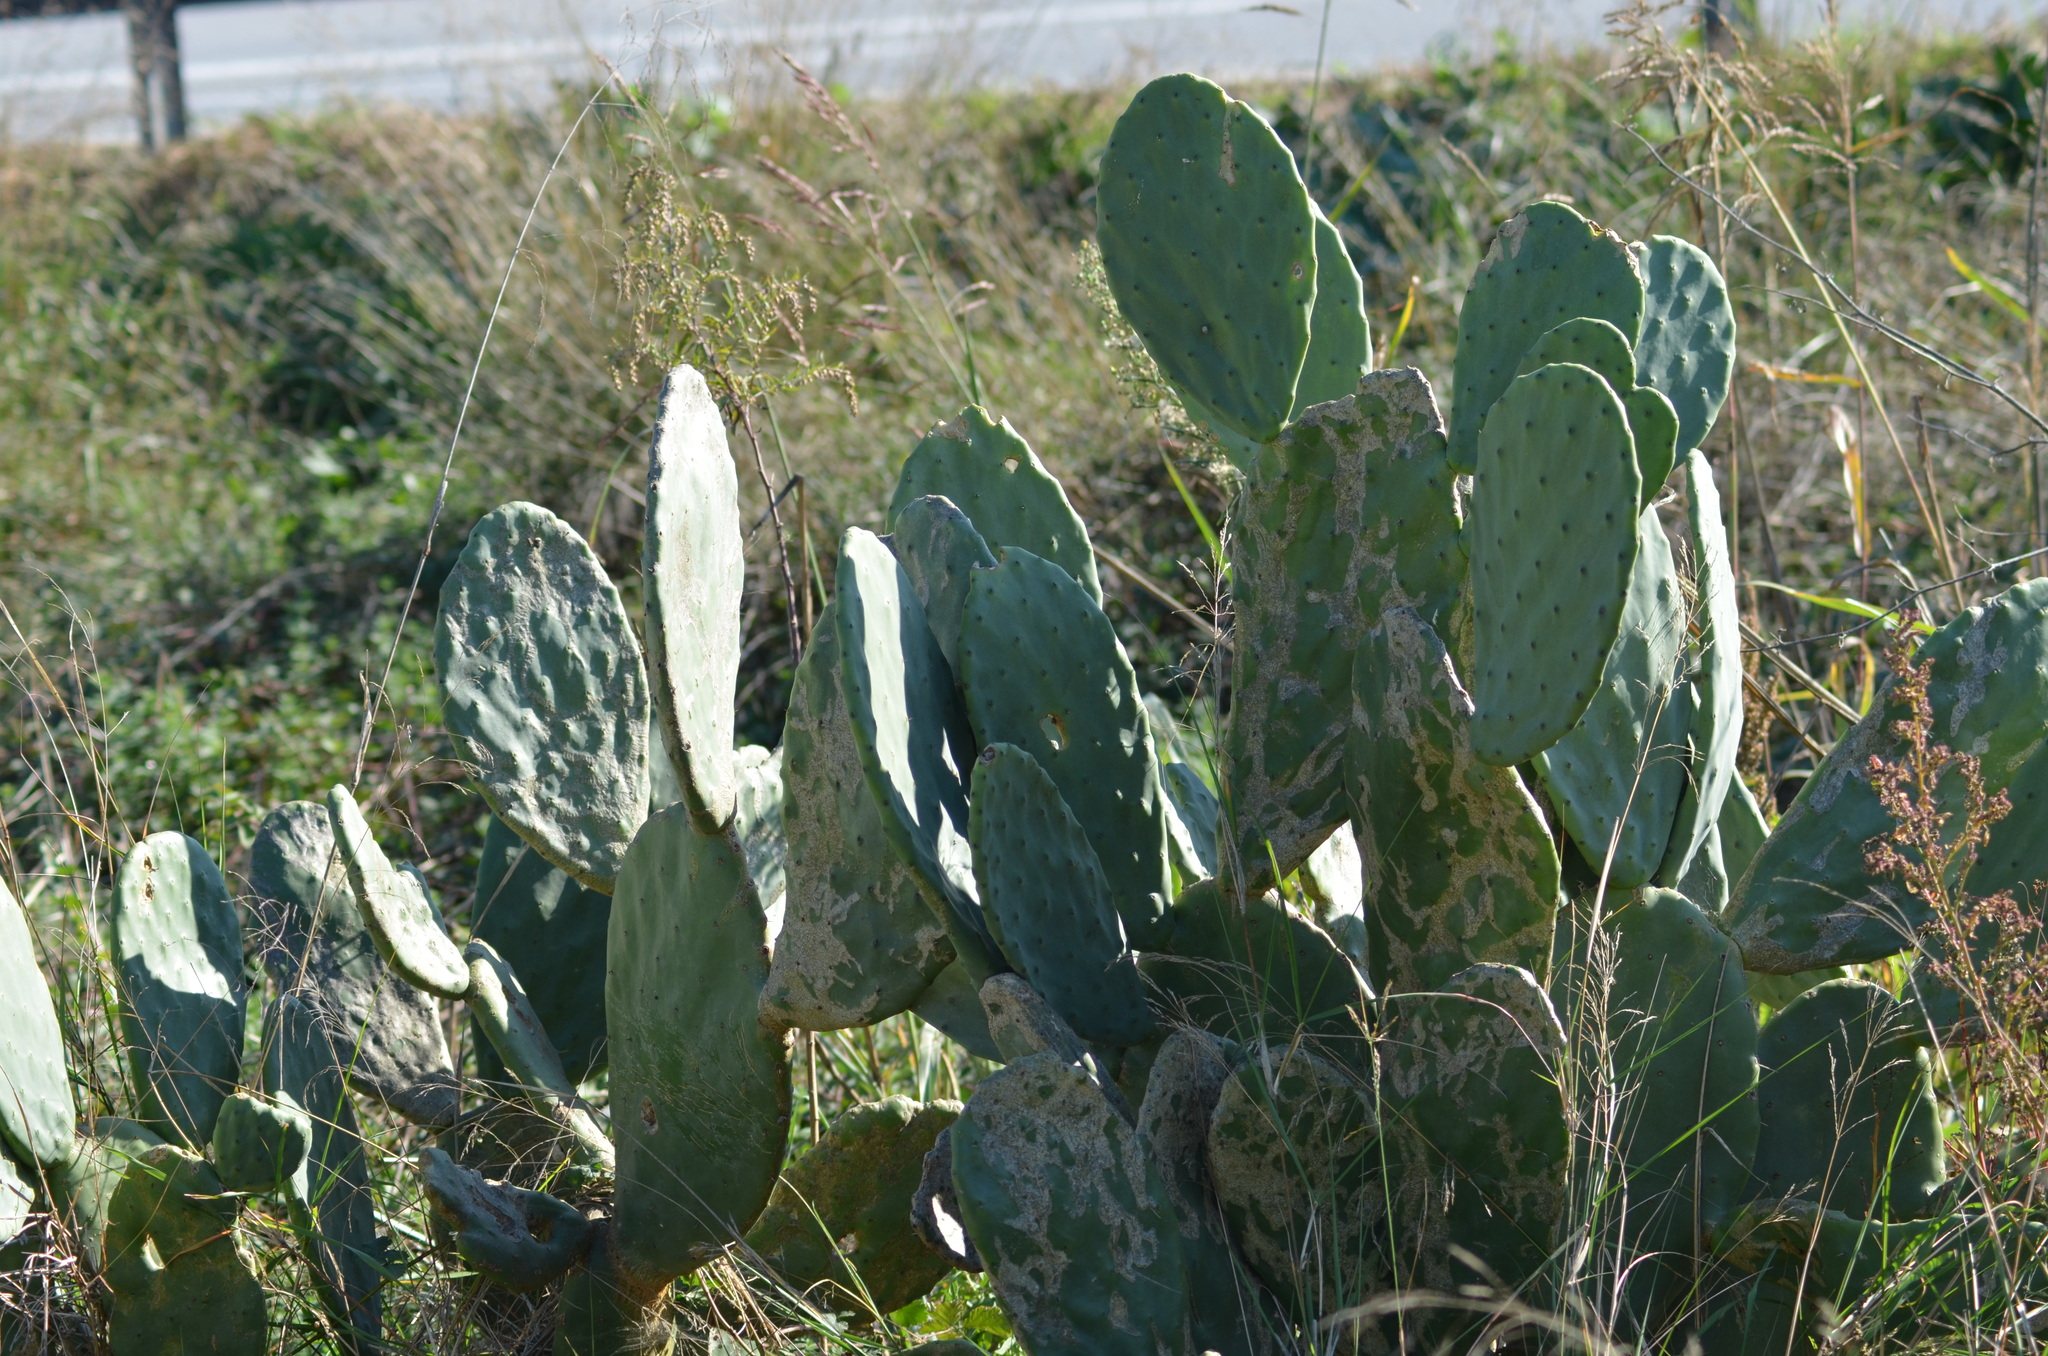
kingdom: Plantae
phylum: Tracheophyta
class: Magnoliopsida
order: Caryophyllales
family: Cactaceae
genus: Opuntia
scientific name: Opuntia ficus-indica
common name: Barbary fig
